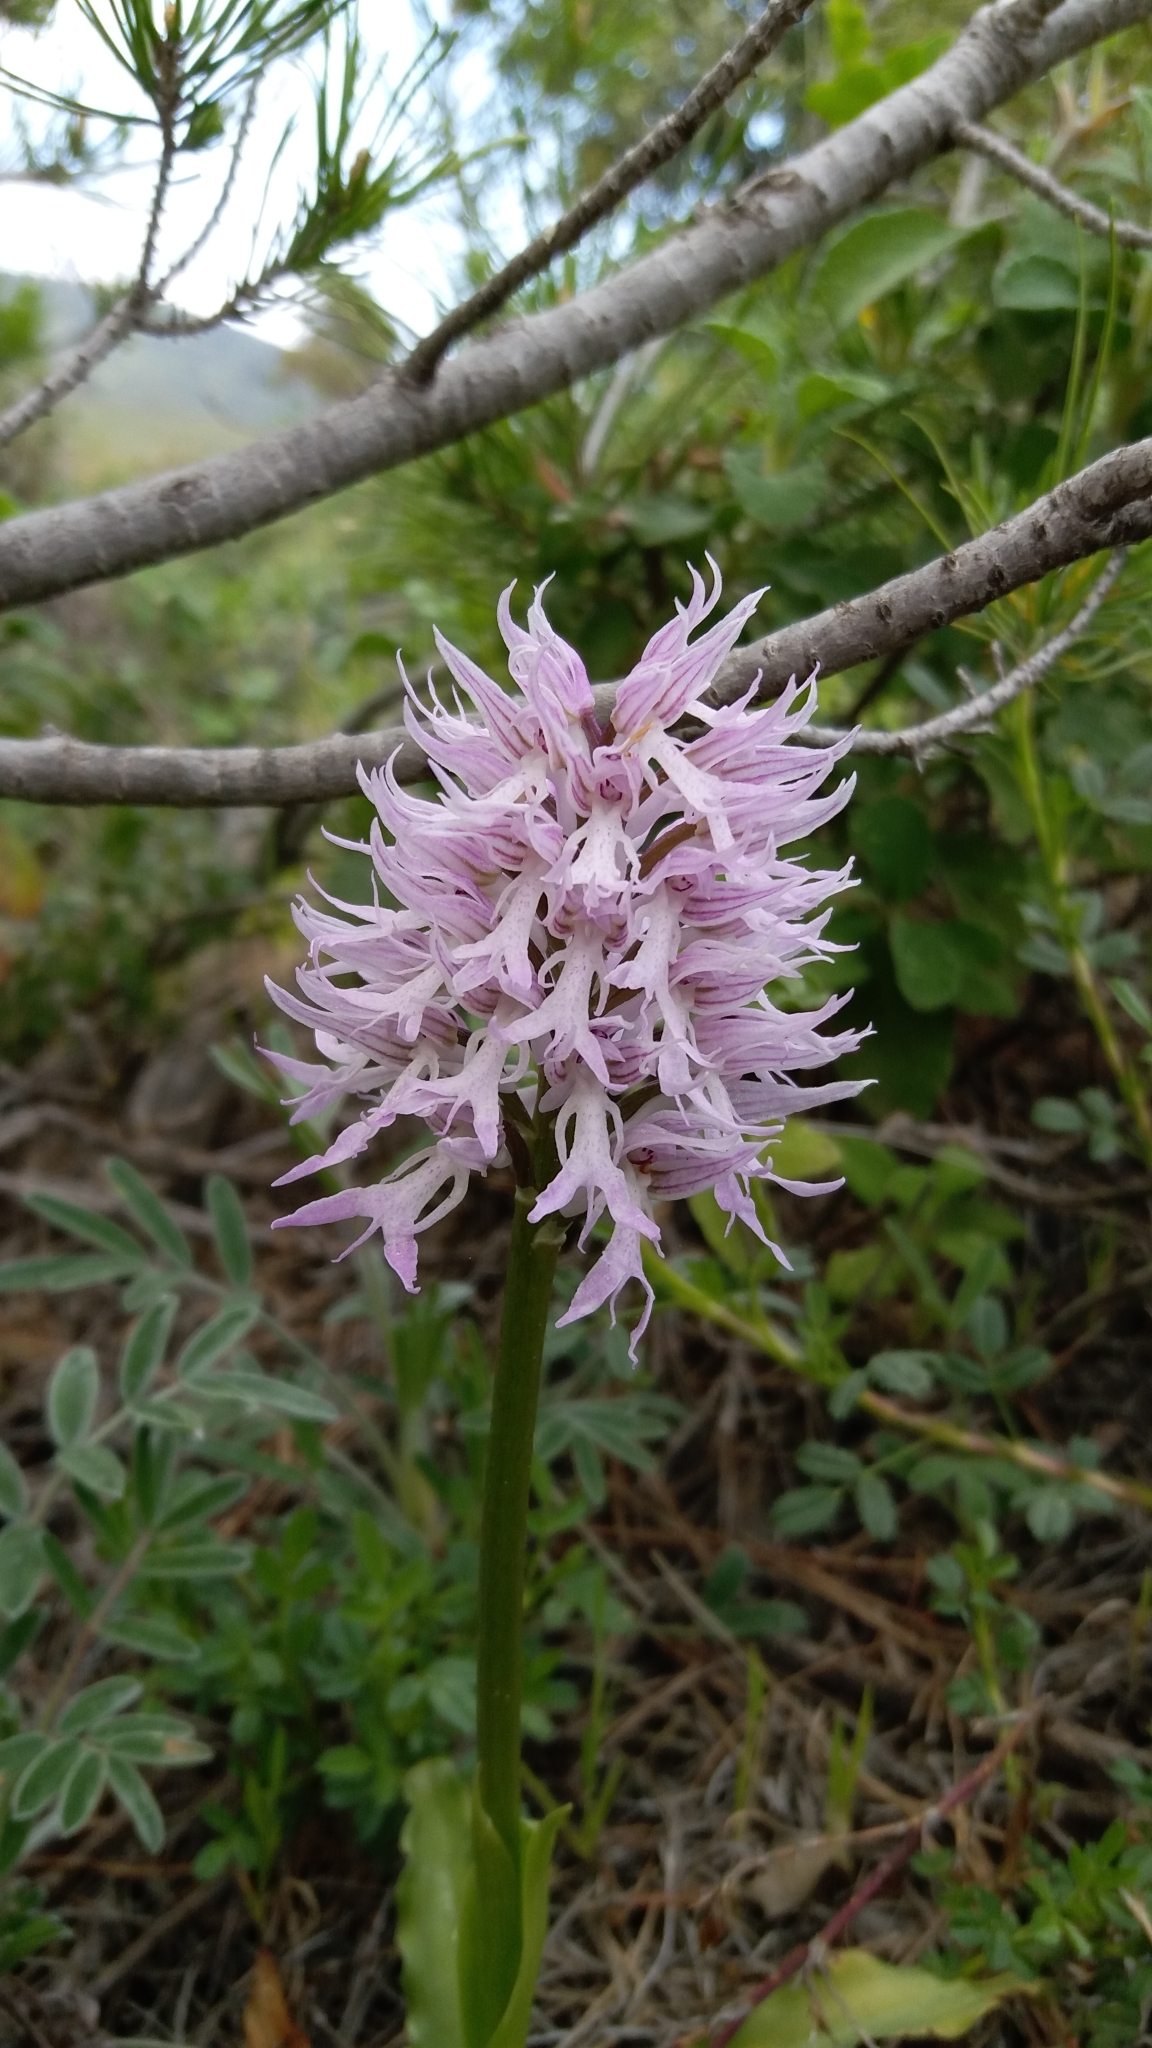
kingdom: Plantae
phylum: Tracheophyta
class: Liliopsida
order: Asparagales
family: Orchidaceae
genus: Orchis
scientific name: Orchis italica
